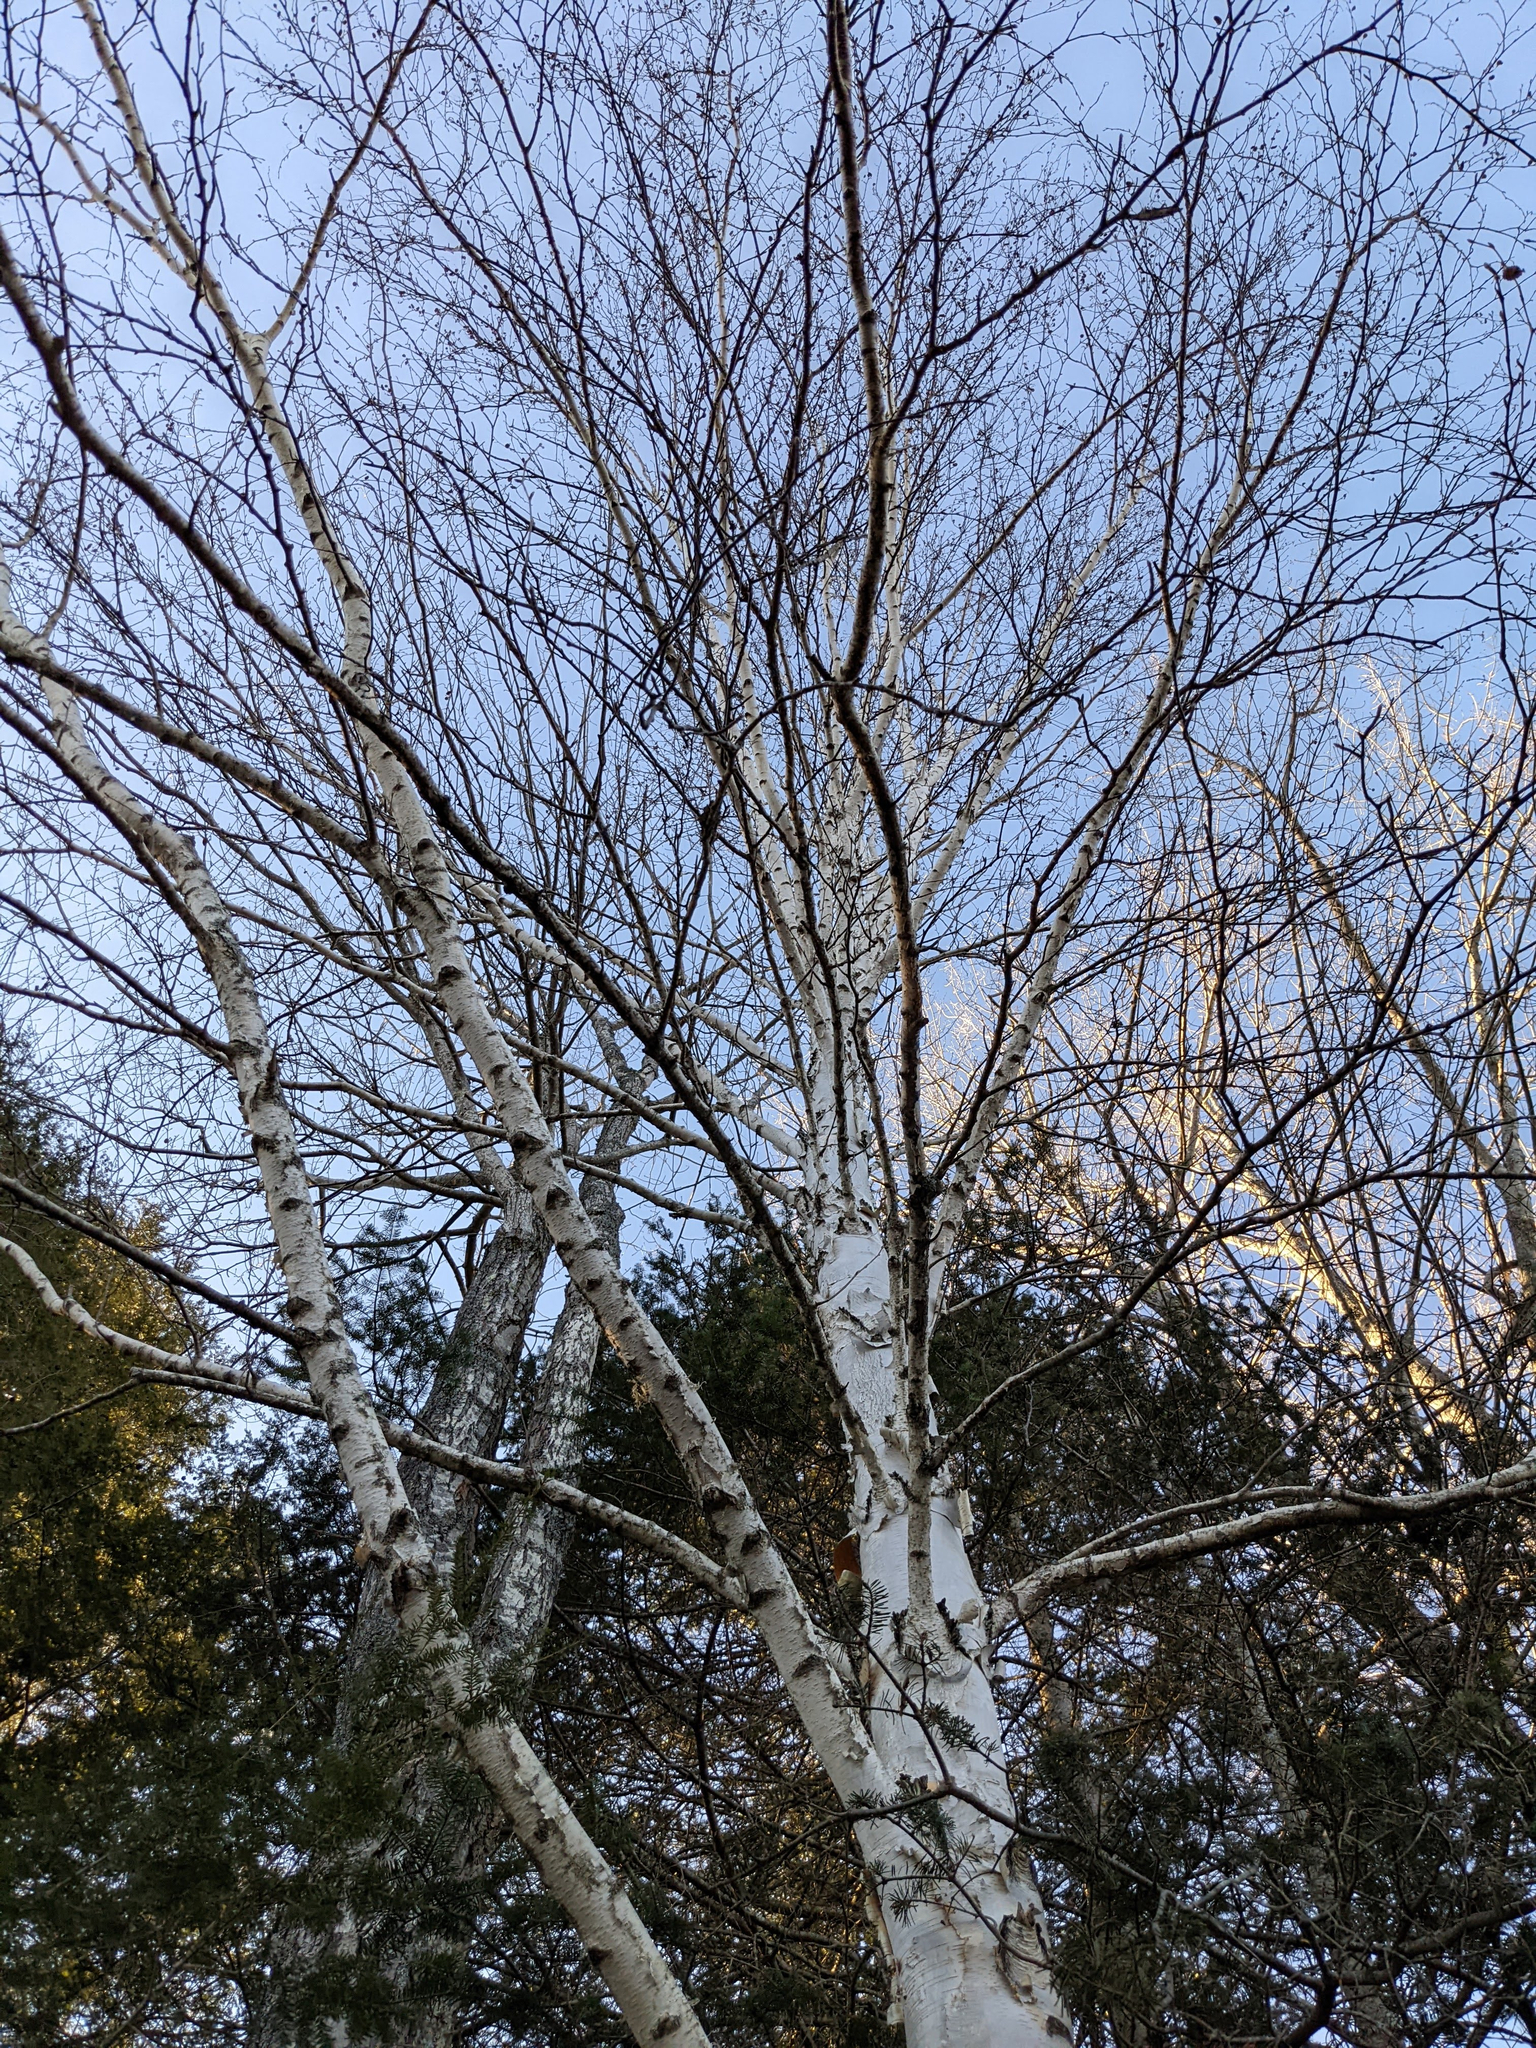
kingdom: Plantae
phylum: Tracheophyta
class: Magnoliopsida
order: Fagales
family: Betulaceae
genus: Betula
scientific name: Betula papyrifera
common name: Paper birch
